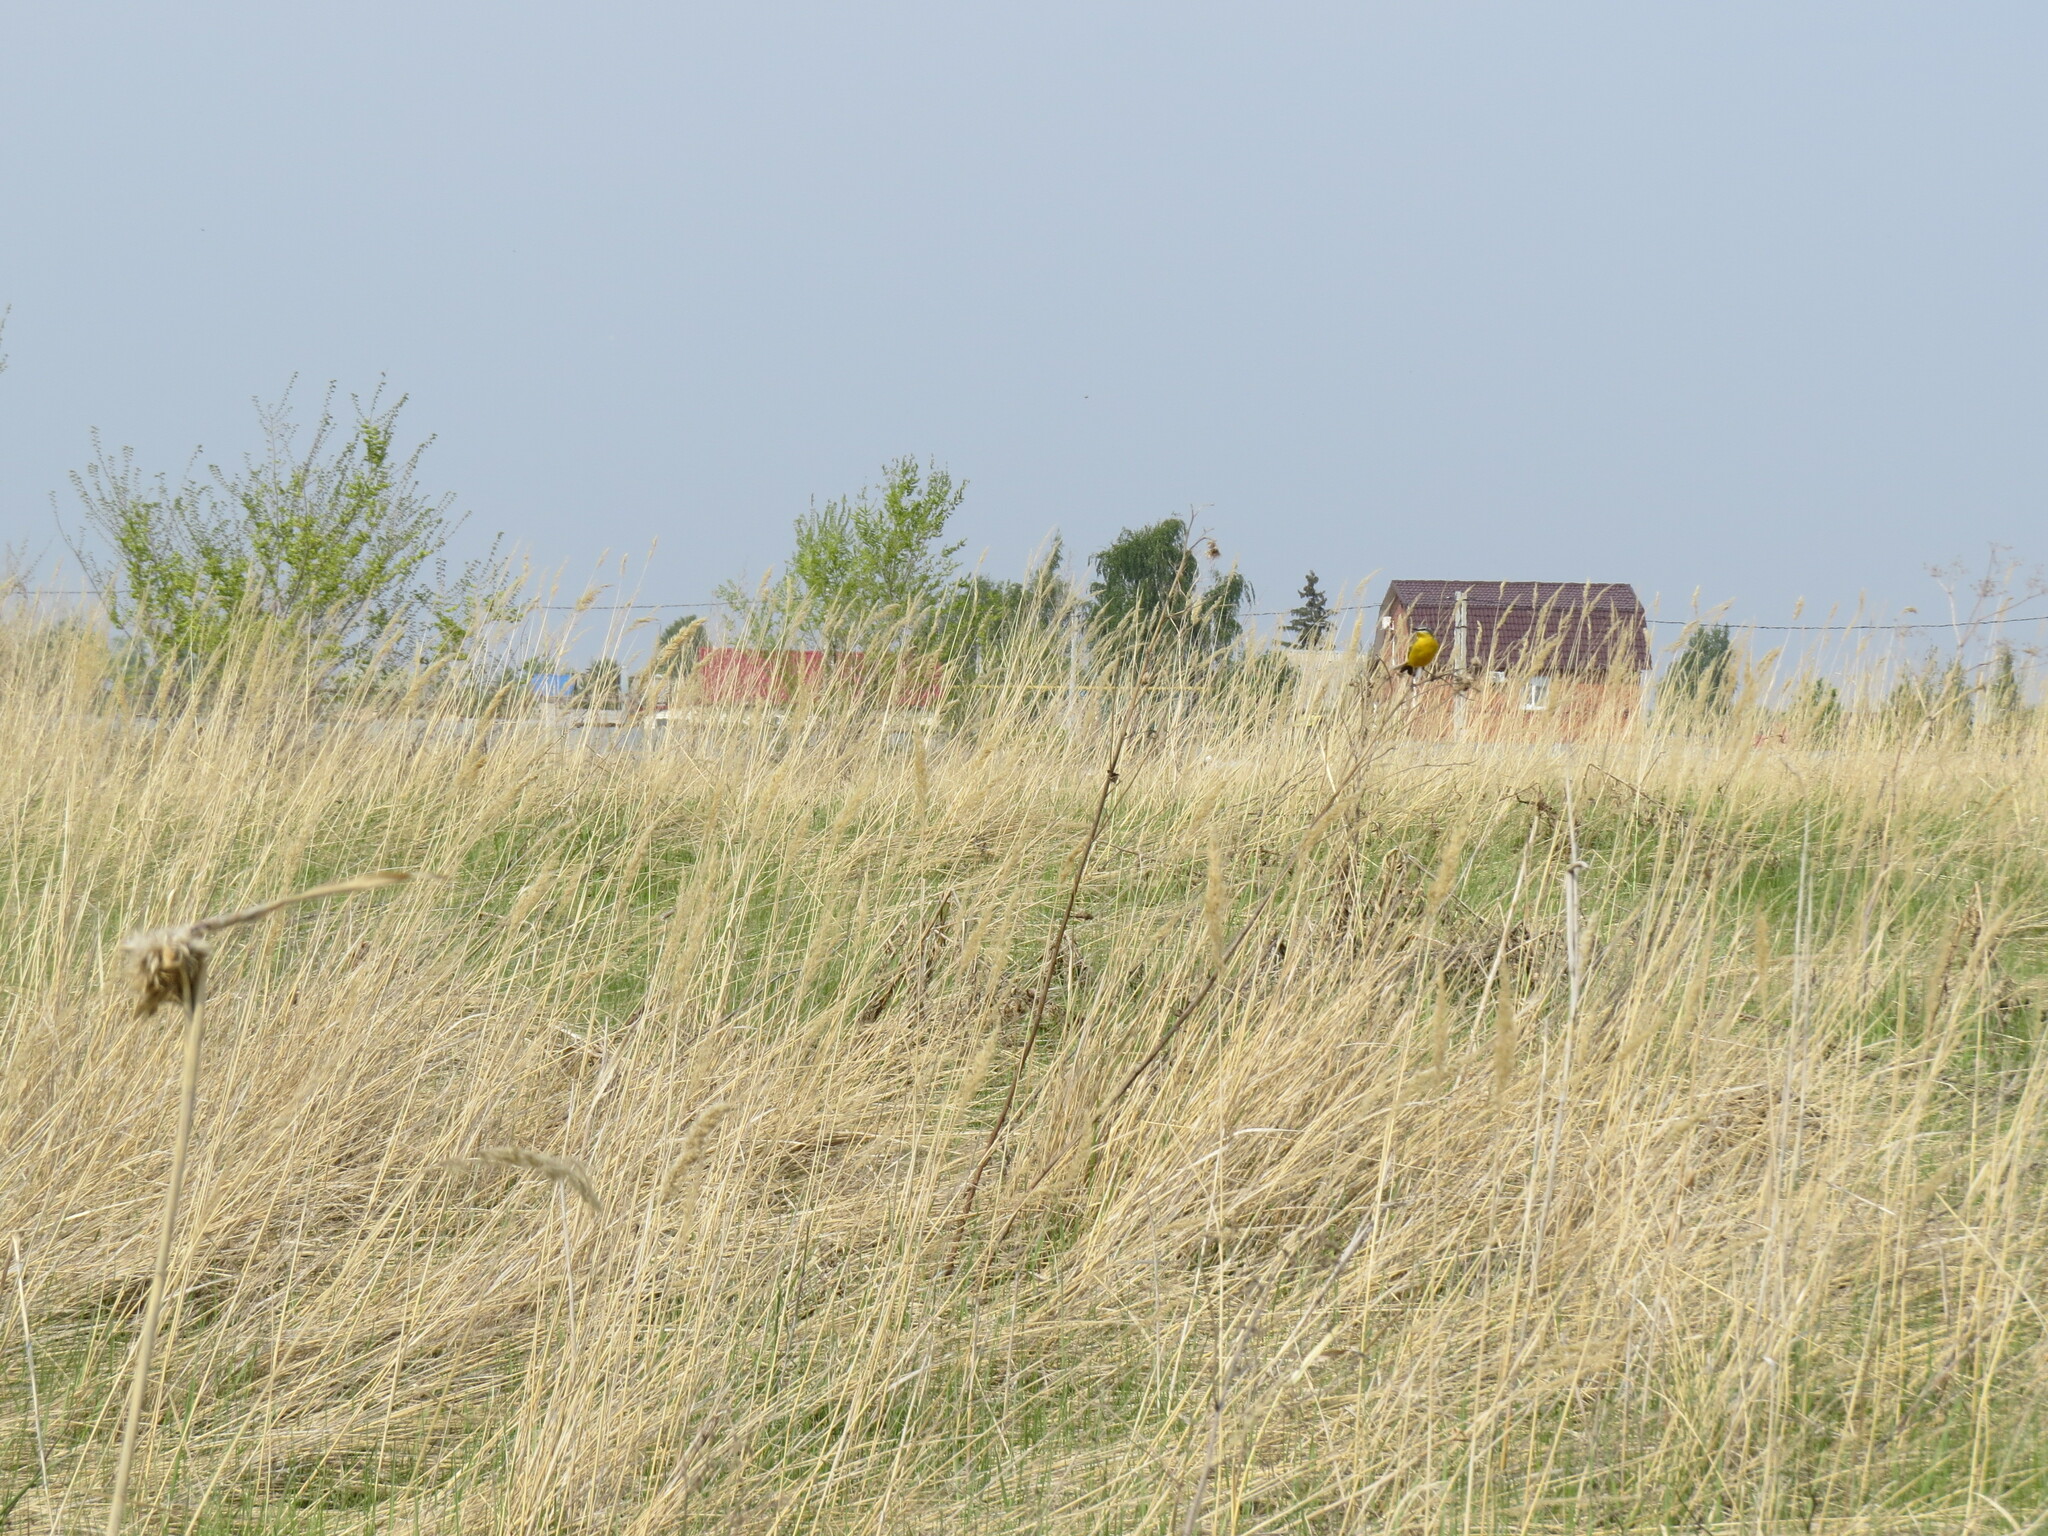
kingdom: Animalia
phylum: Chordata
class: Aves
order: Passeriformes
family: Motacillidae
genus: Motacilla
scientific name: Motacilla flava
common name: Western yellow wagtail
